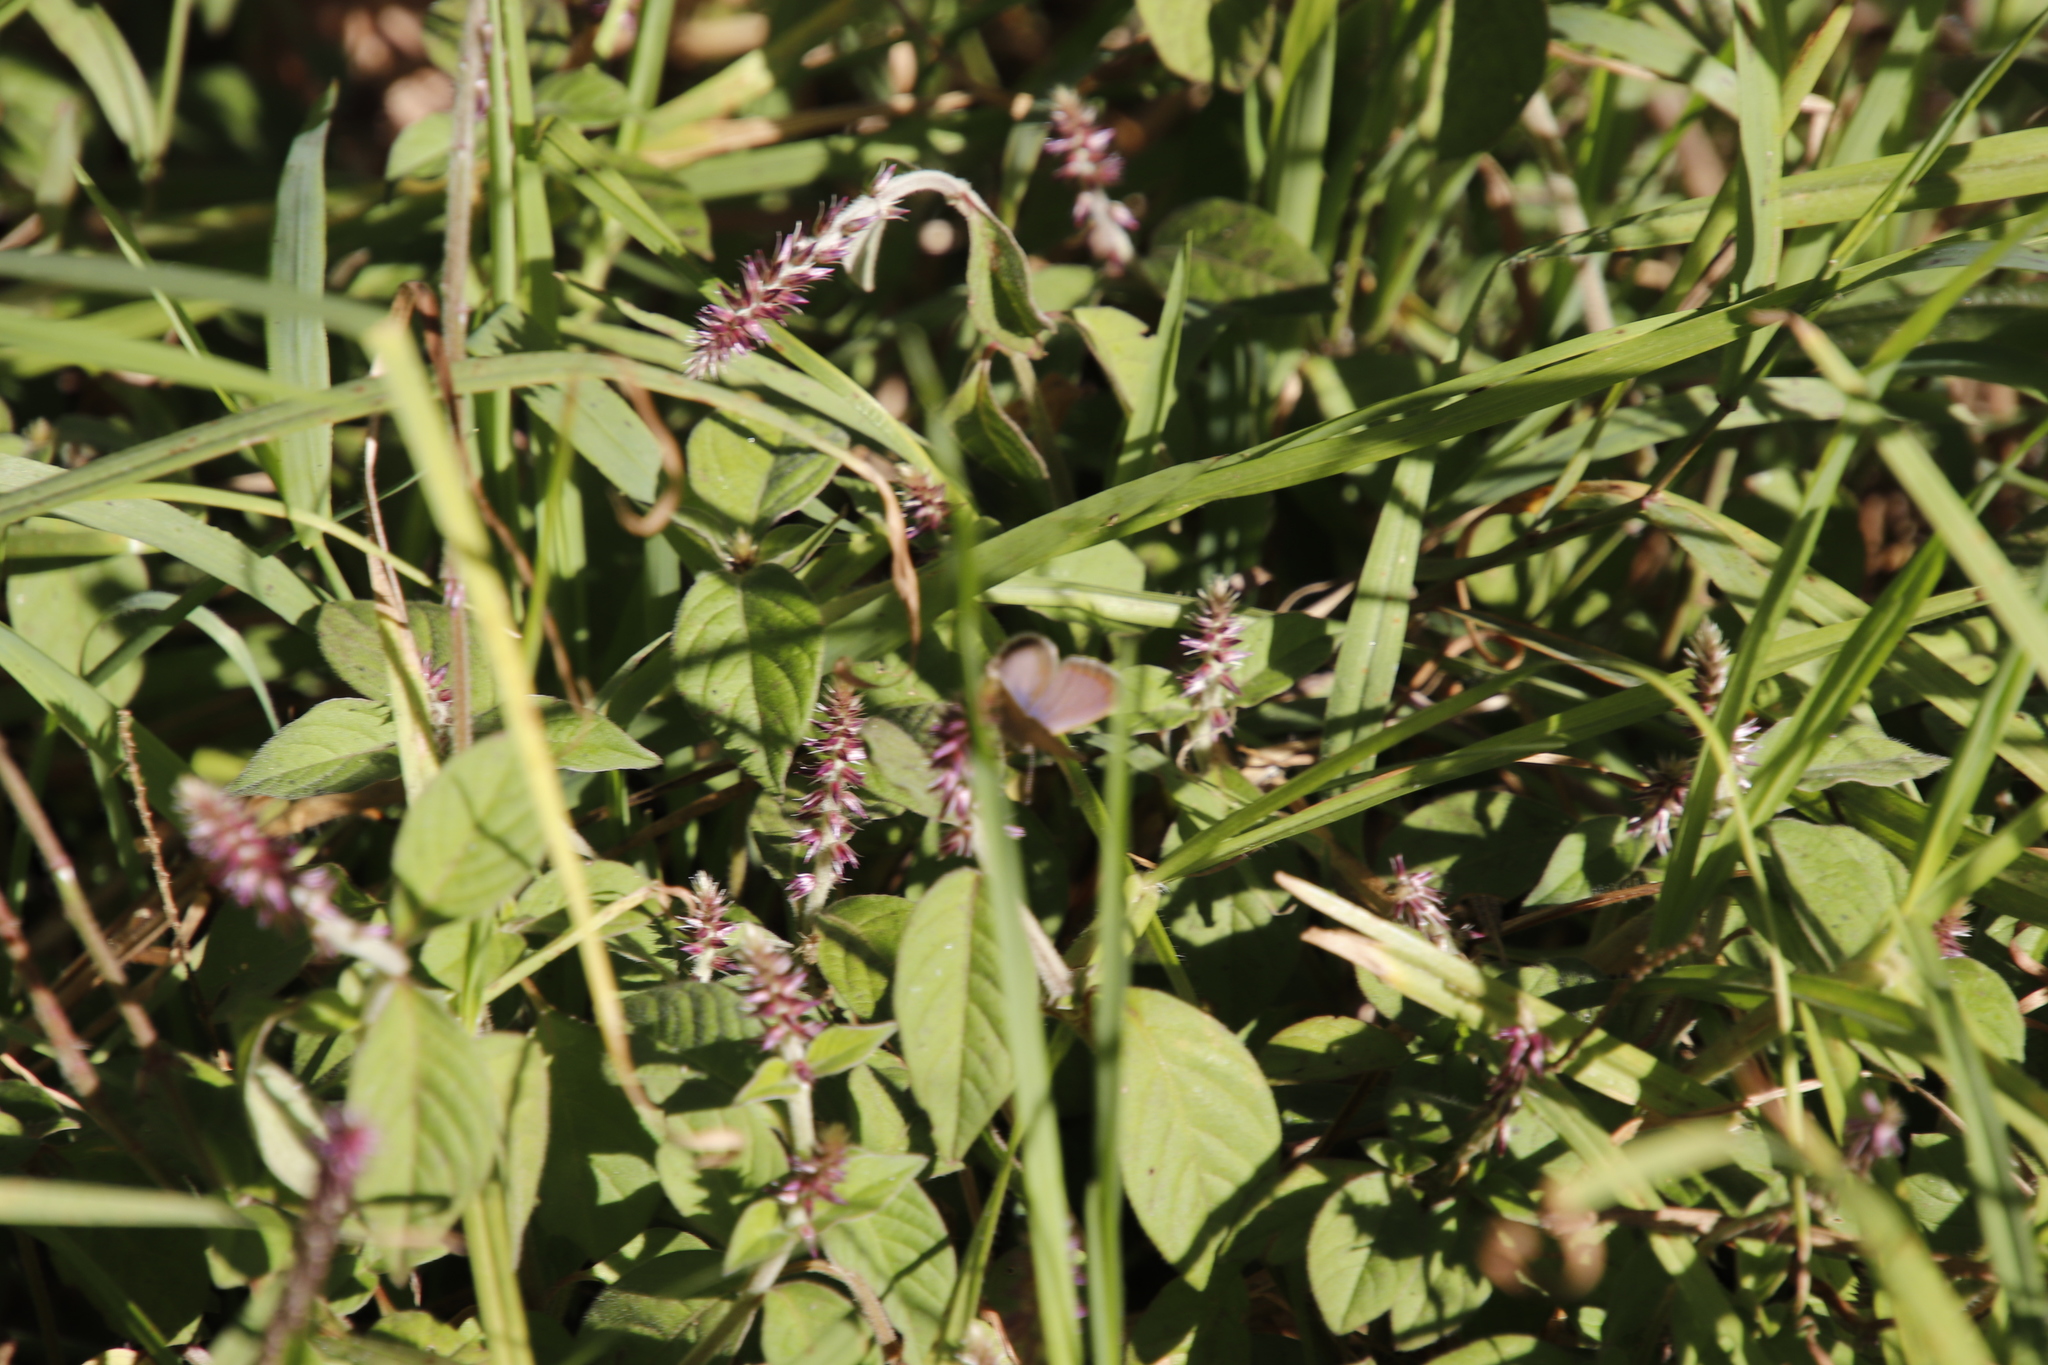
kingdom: Plantae
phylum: Tracheophyta
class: Magnoliopsida
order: Caryophyllales
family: Amaranthaceae
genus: Achyranthes
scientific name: Achyranthes aspera
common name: Devil's horsewhip
